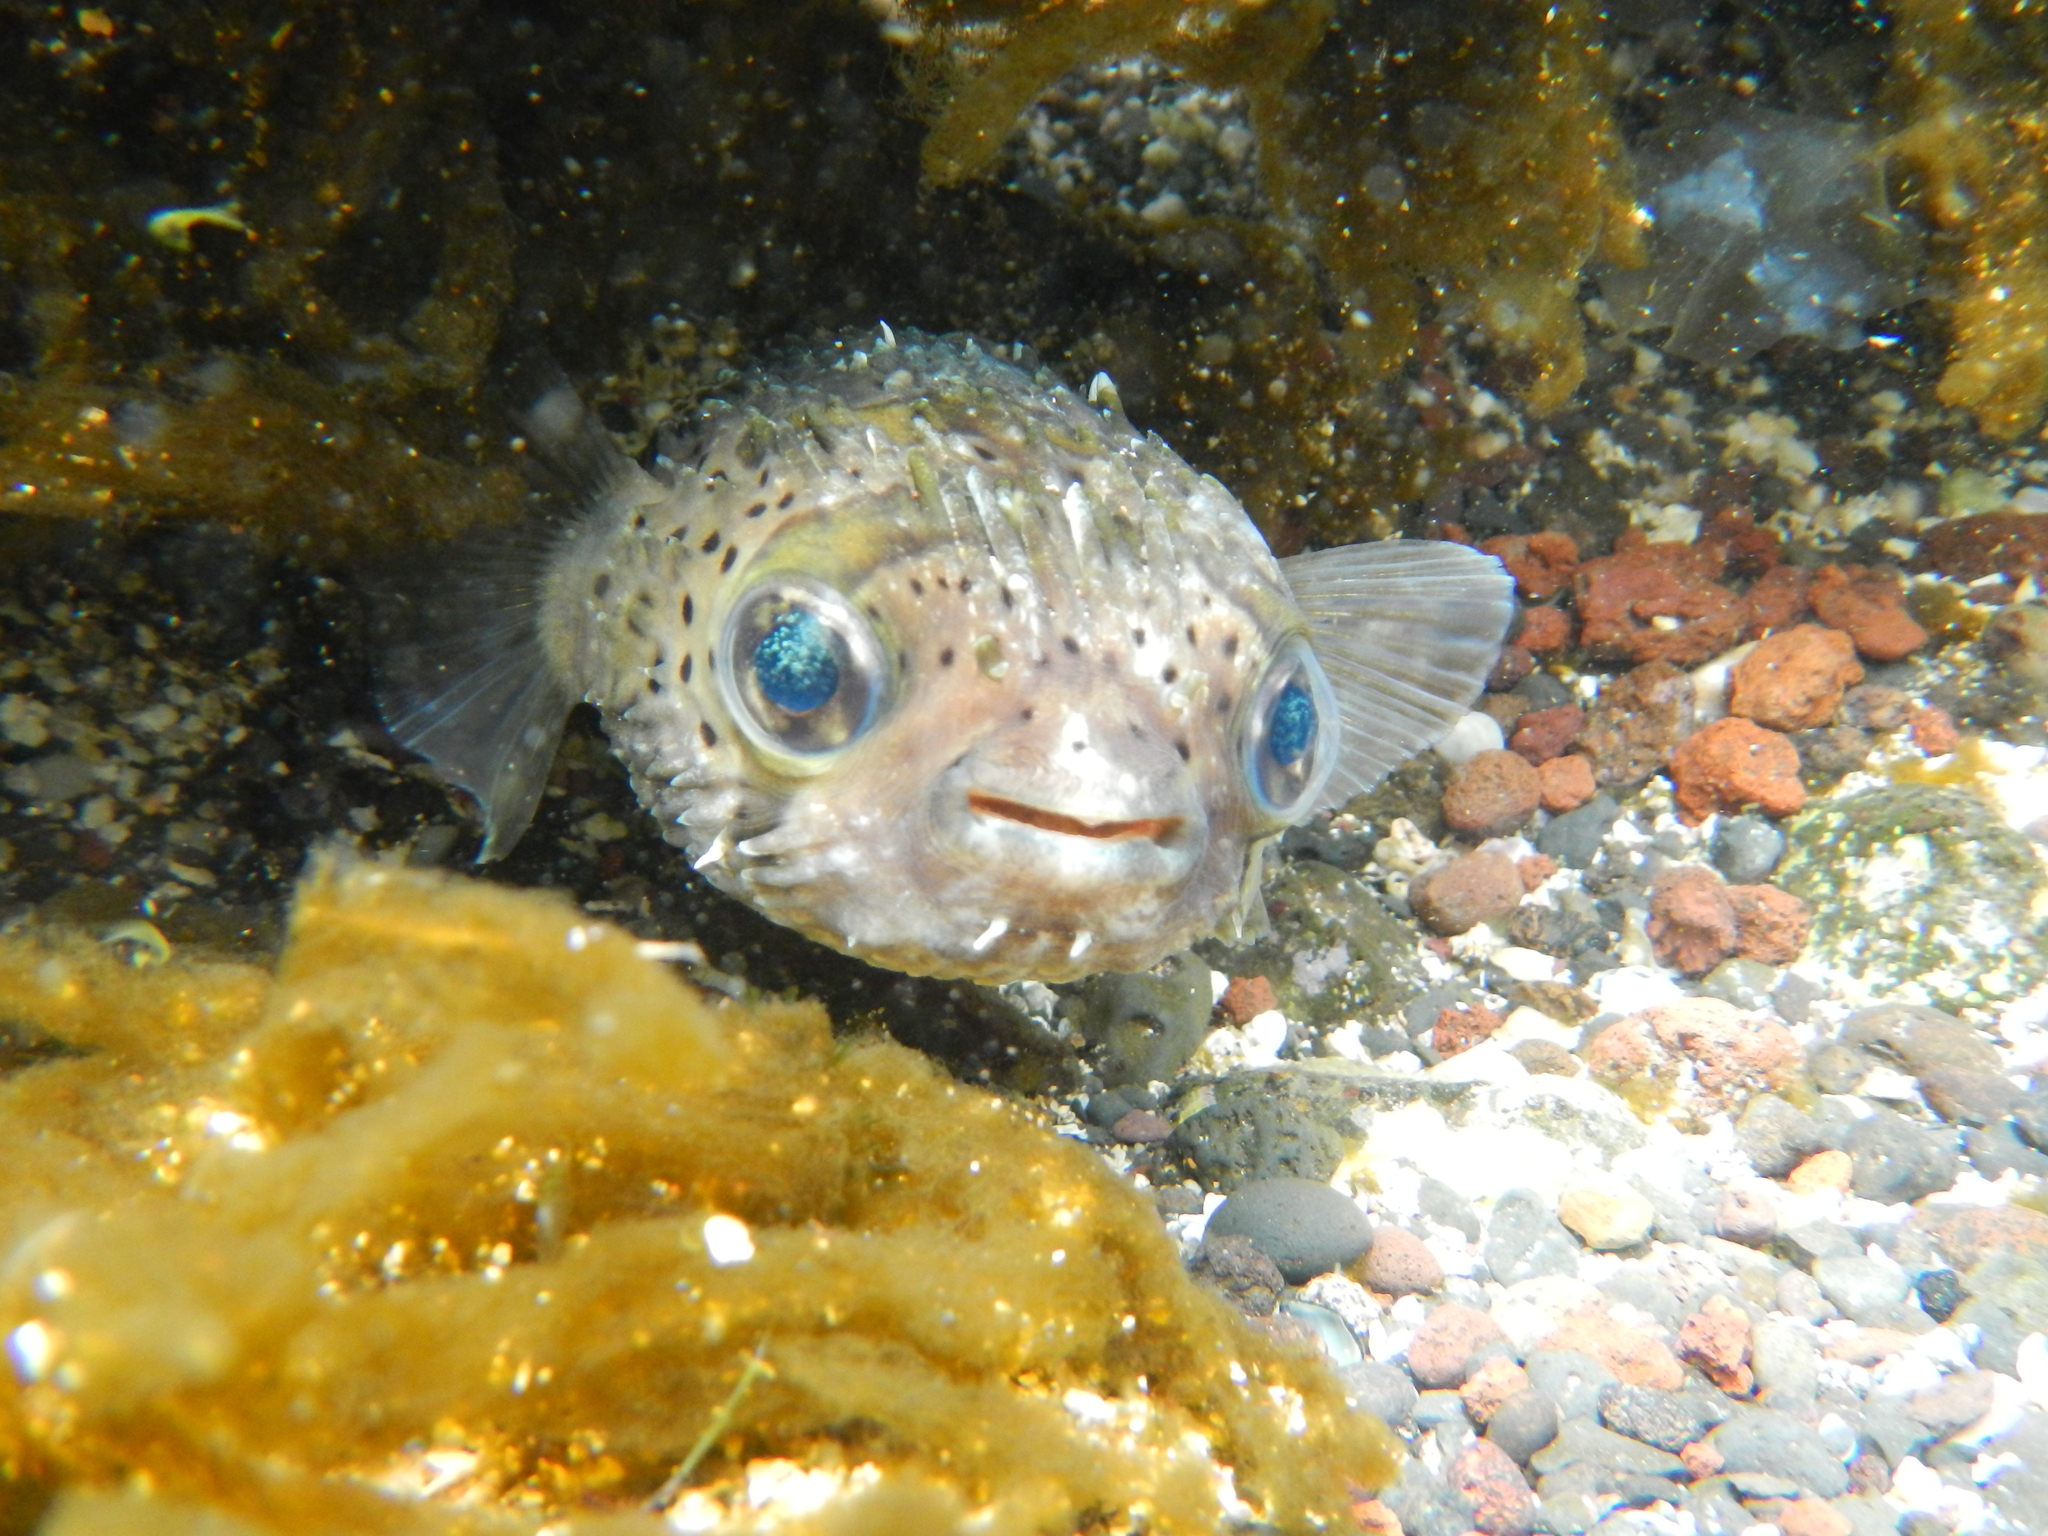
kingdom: Animalia
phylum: Chordata
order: Tetraodontiformes
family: Diodontidae
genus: Diodon
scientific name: Diodon holocanthus
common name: Balloonfish
